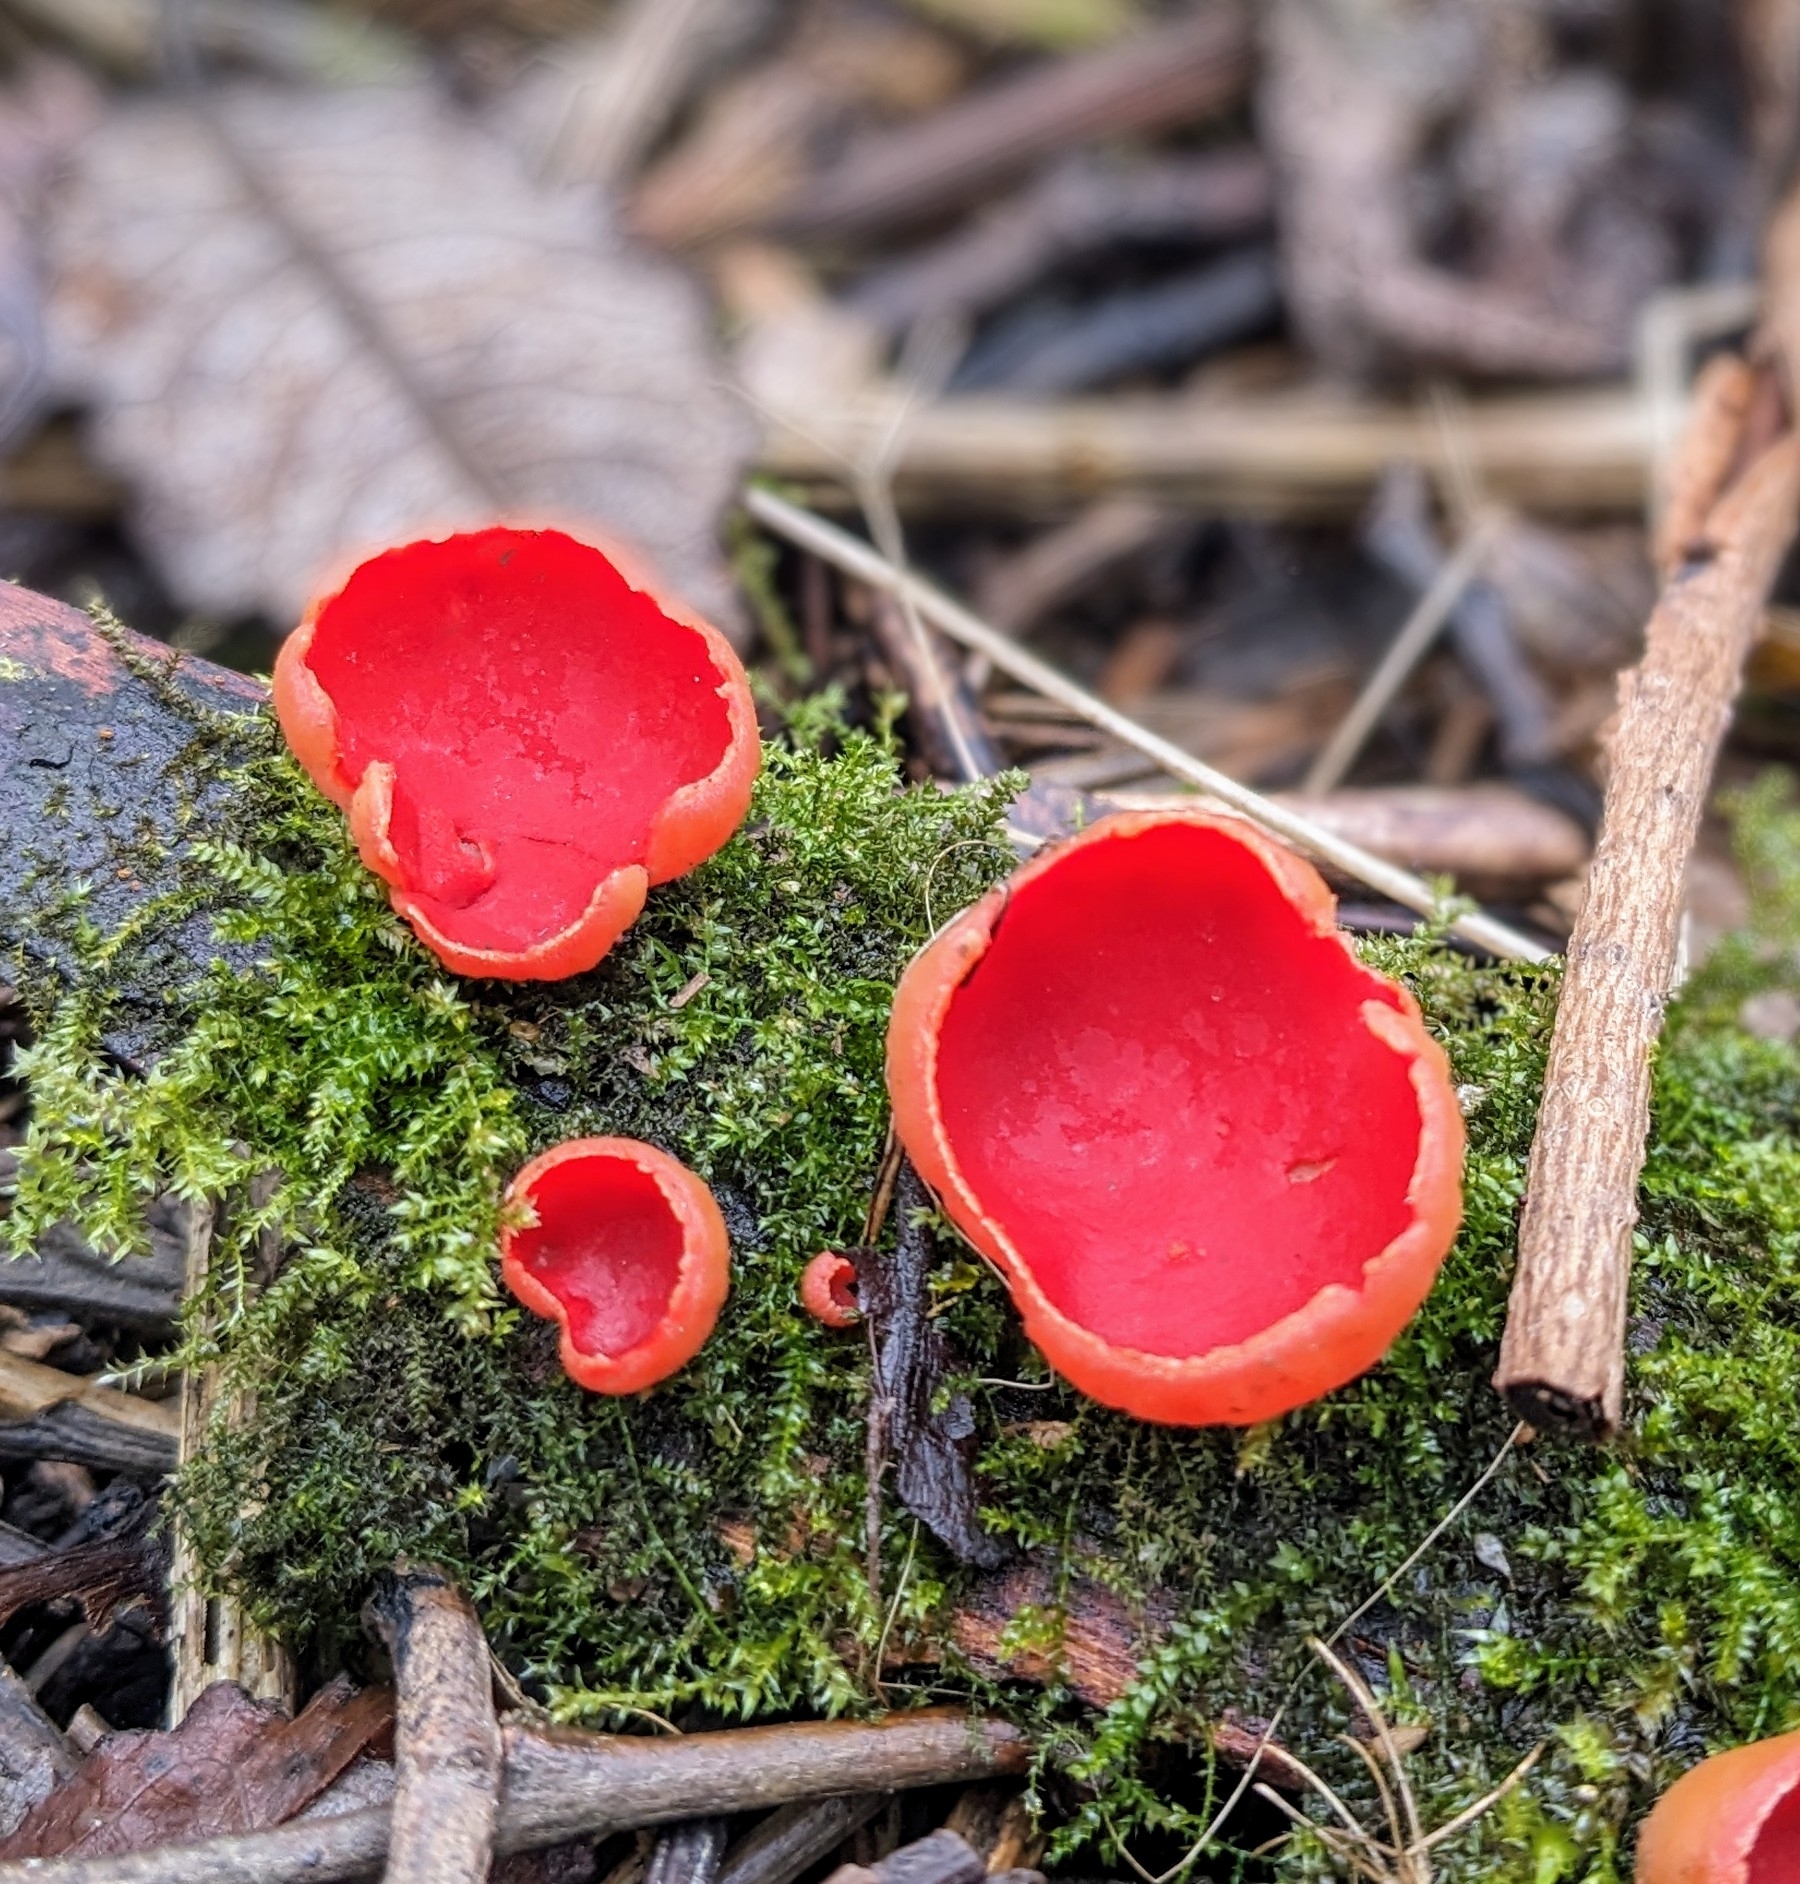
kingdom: Fungi
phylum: Ascomycota
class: Pezizomycetes
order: Pezizales
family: Sarcoscyphaceae
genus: Sarcoscypha
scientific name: Sarcoscypha
